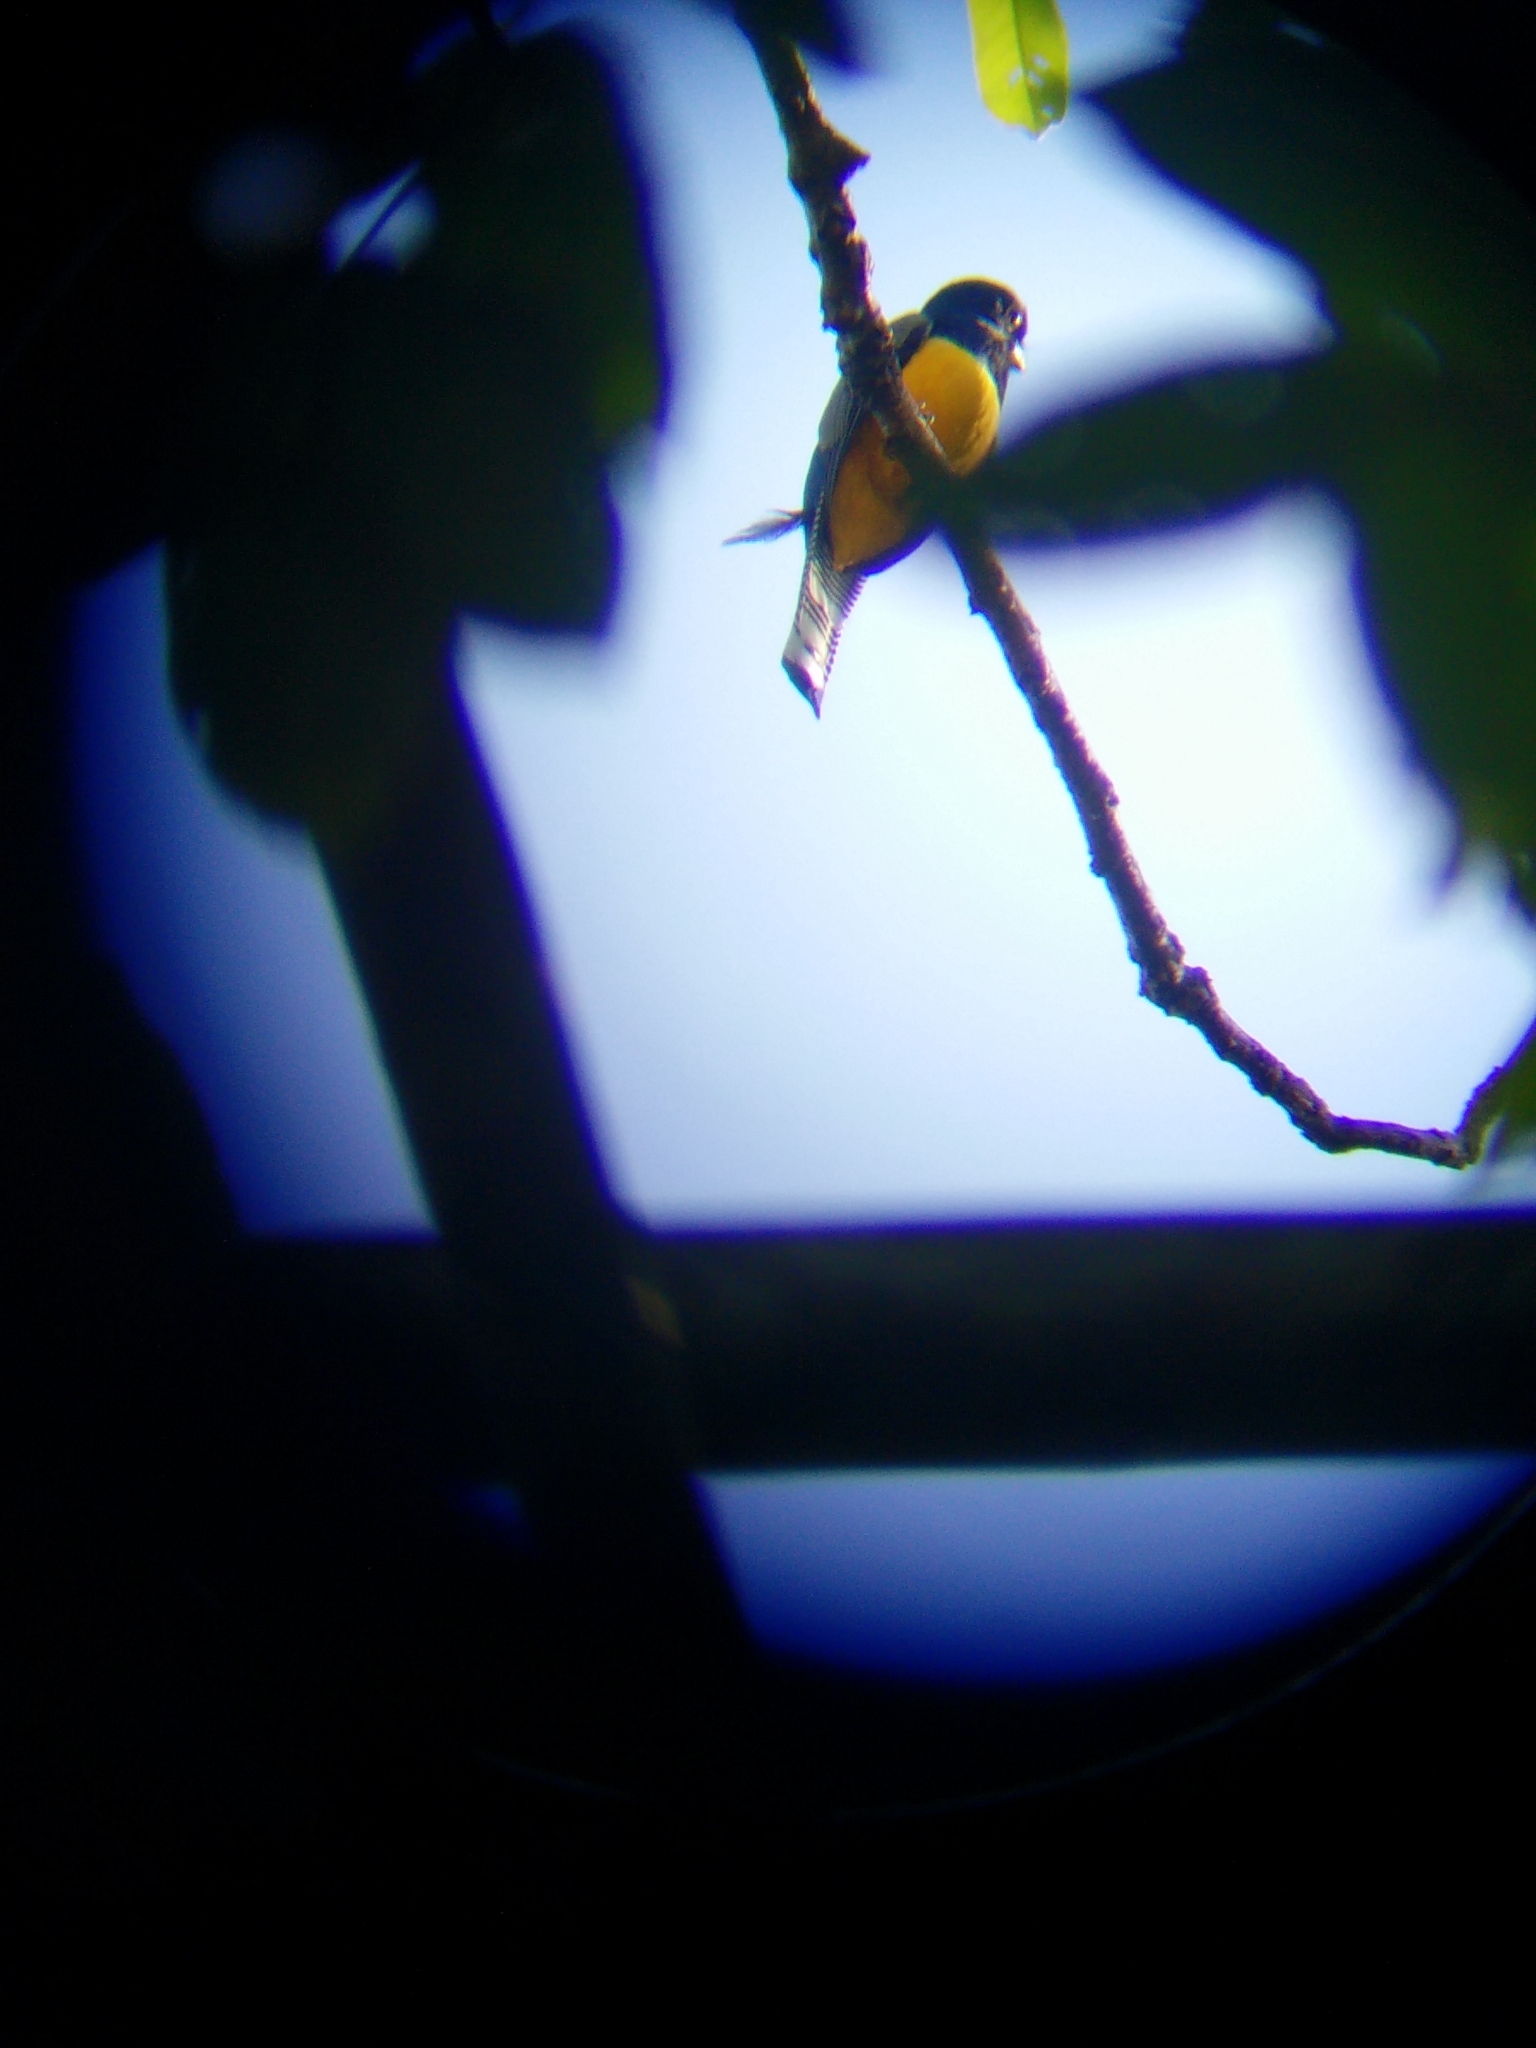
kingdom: Animalia
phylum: Chordata
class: Aves
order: Trogoniformes
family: Trogonidae
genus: Trogon
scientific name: Trogon caligatus
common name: Gartered trogon
